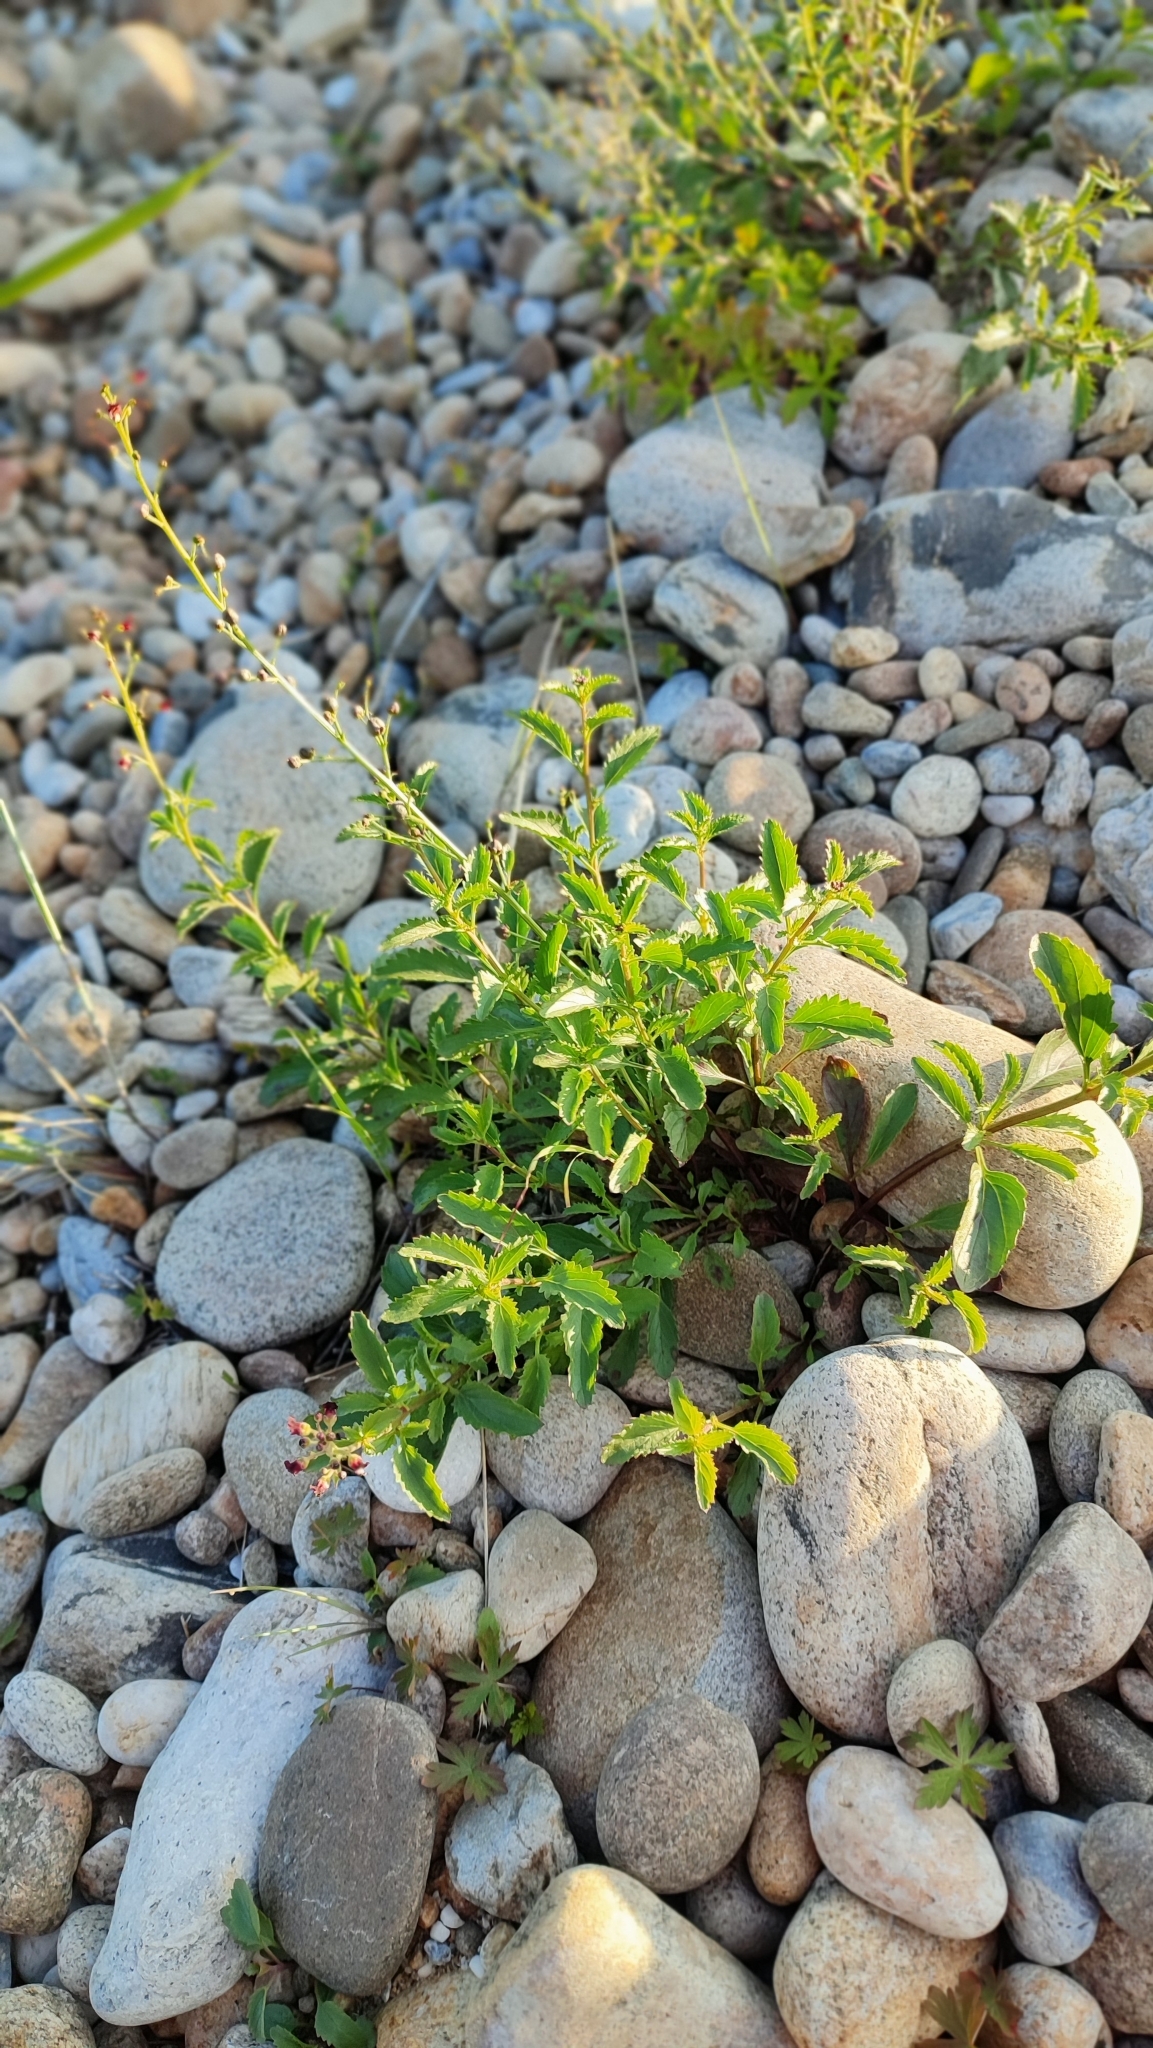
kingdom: Plantae
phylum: Tracheophyta
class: Magnoliopsida
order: Lamiales
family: Scrophulariaceae
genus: Scrophularia
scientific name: Scrophularia incisa
